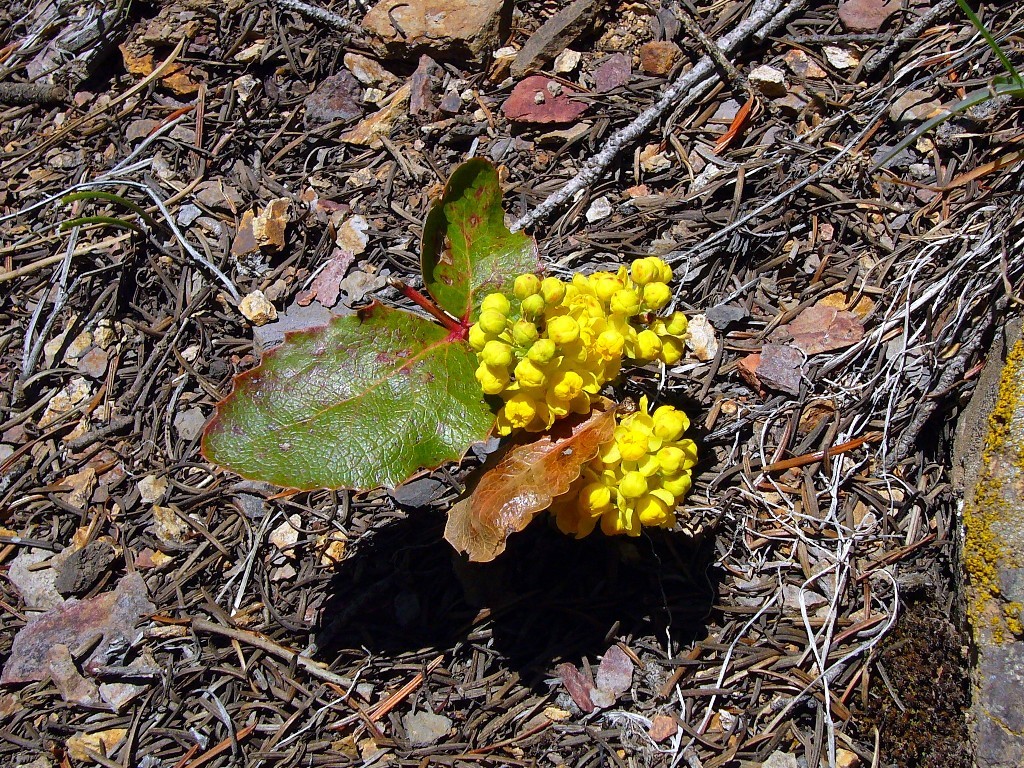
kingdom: Plantae
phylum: Tracheophyta
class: Magnoliopsida
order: Ranunculales
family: Berberidaceae
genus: Mahonia
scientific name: Mahonia repens
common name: Creeping oregon-grape
